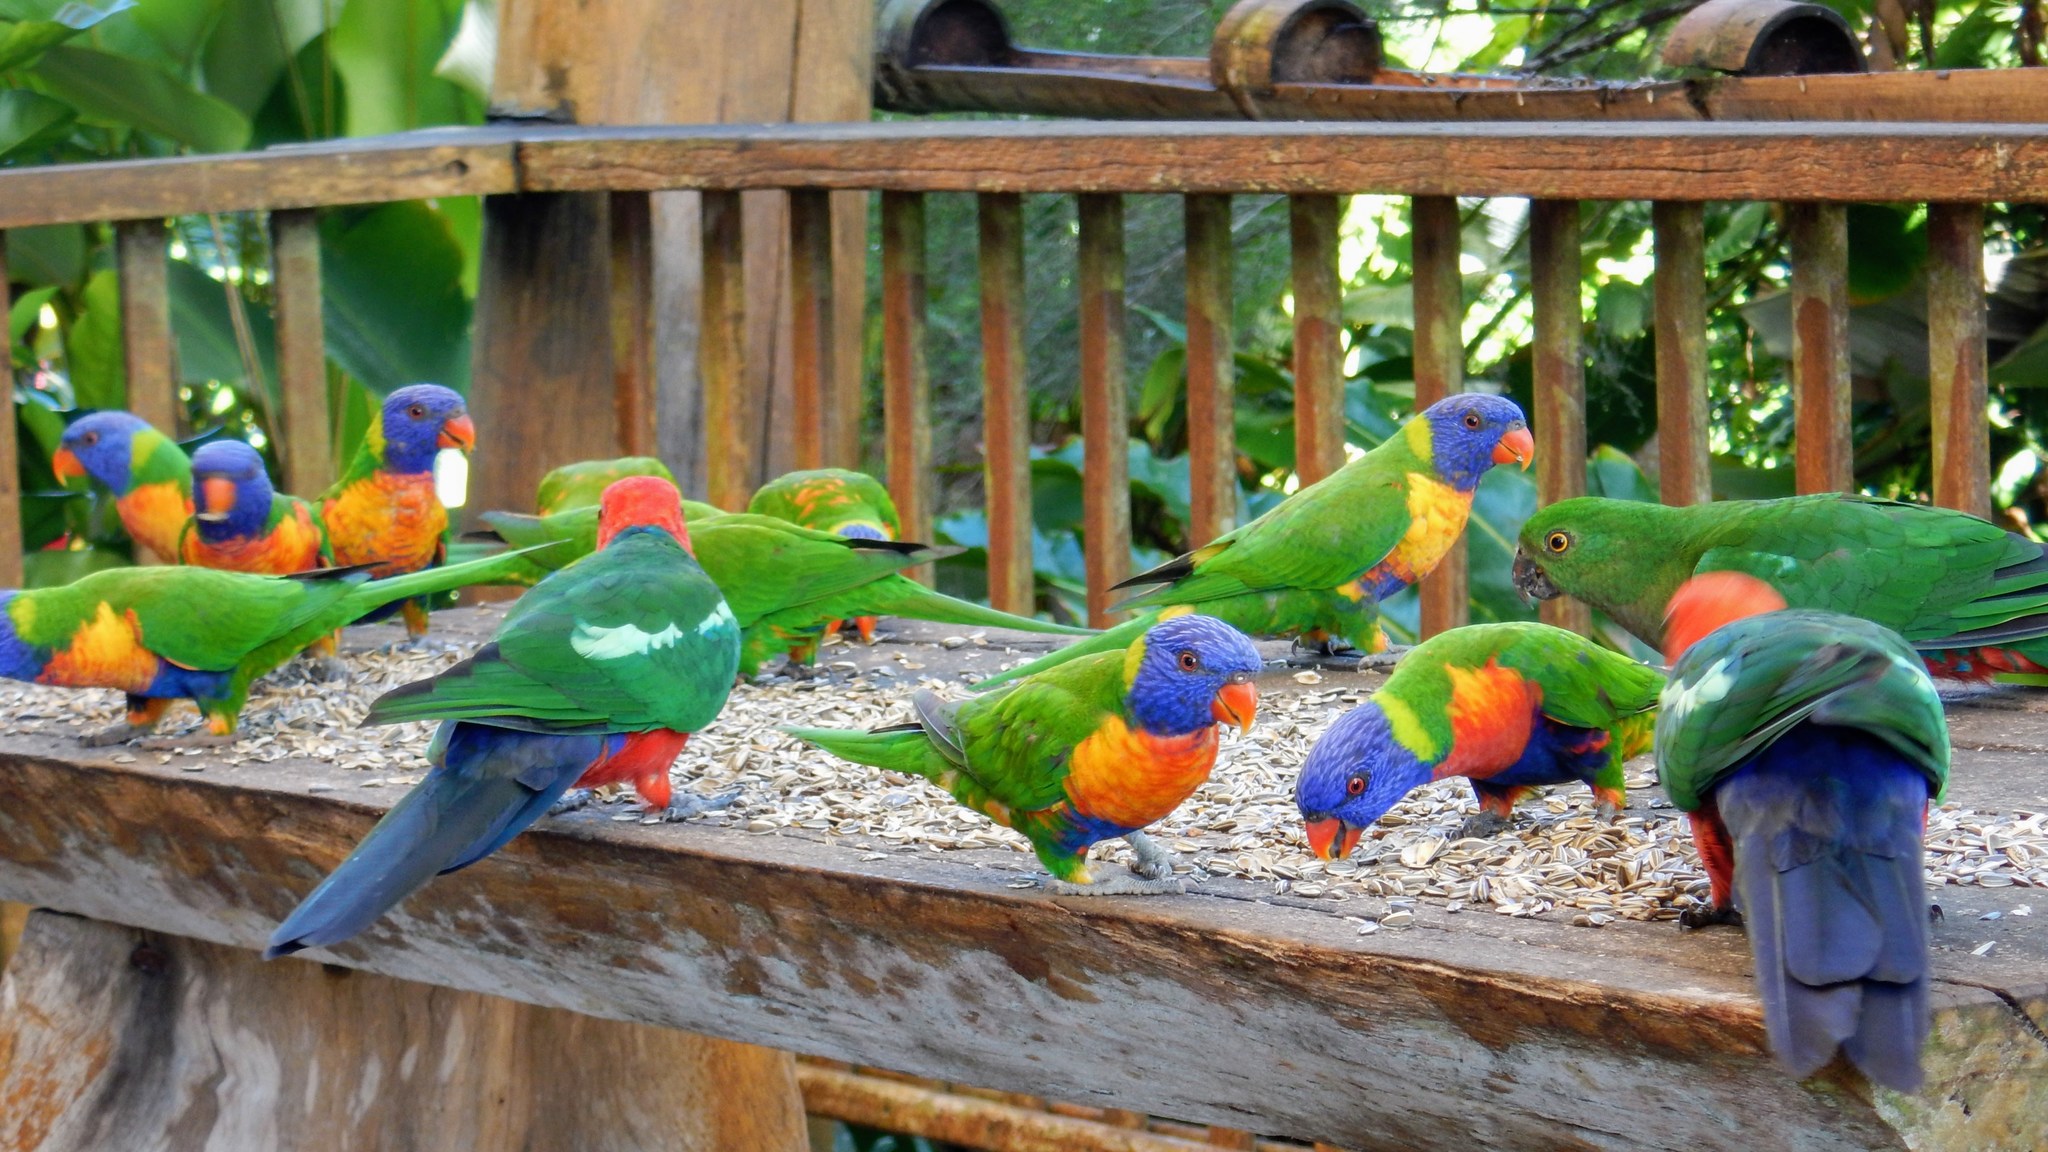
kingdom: Animalia
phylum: Chordata
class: Aves
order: Psittaciformes
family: Psittacidae
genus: Trichoglossus
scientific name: Trichoglossus haematodus
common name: Coconut lorikeet
